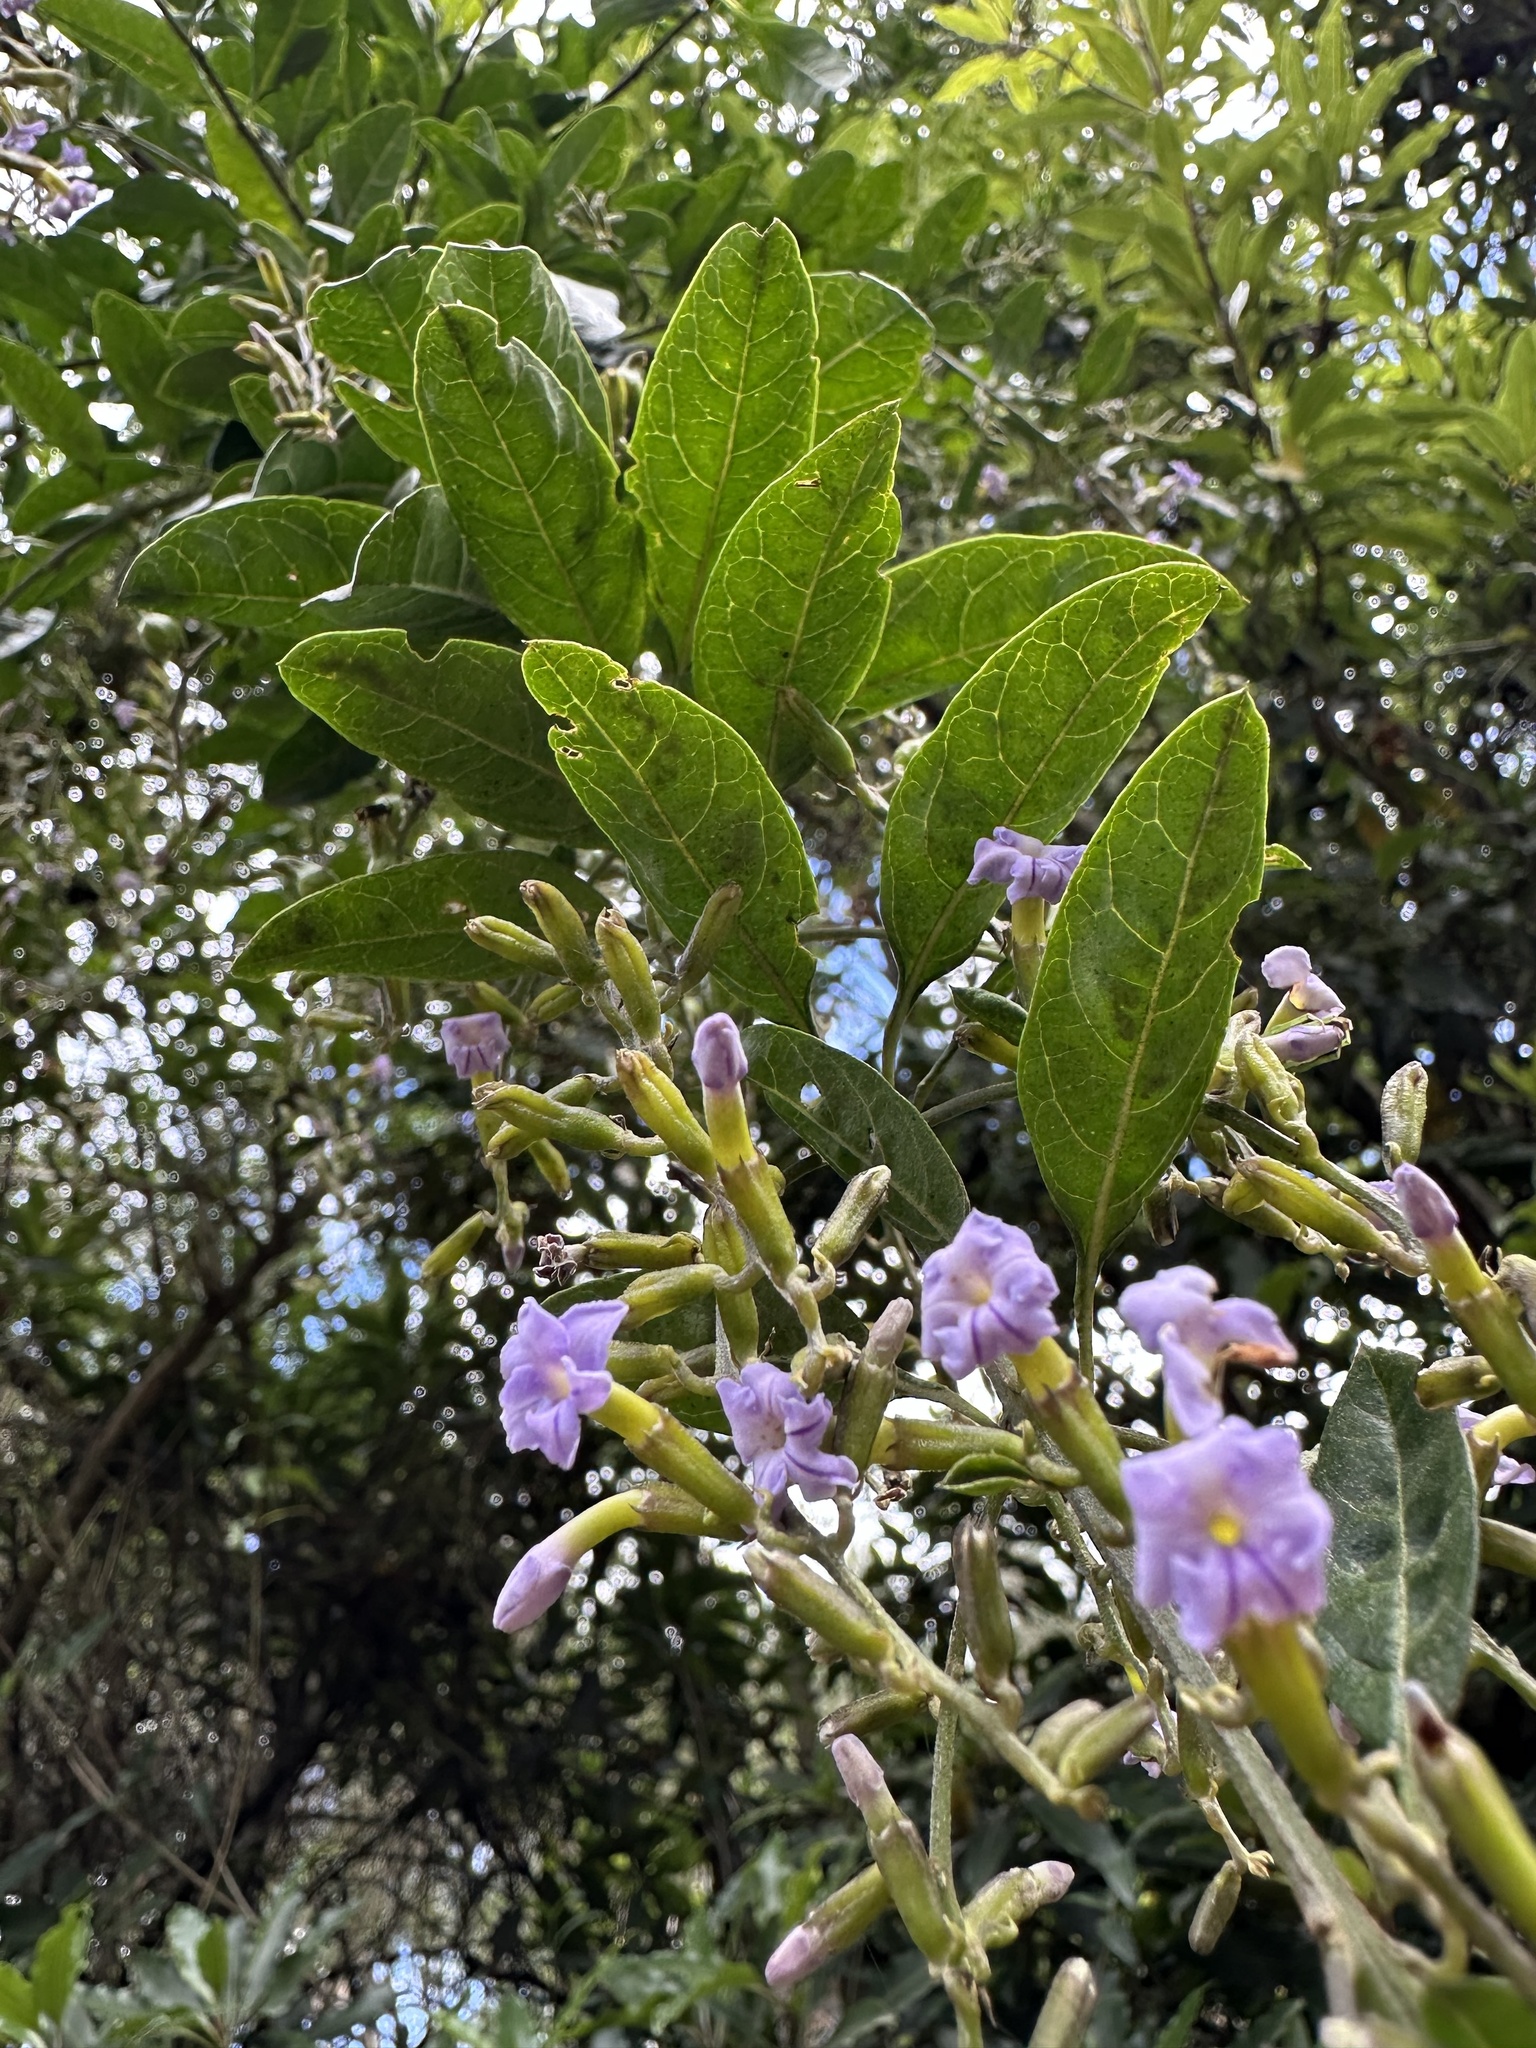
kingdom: Plantae
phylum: Tracheophyta
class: Magnoliopsida
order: Lamiales
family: Verbenaceae
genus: Duranta
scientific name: Duranta mutisii
